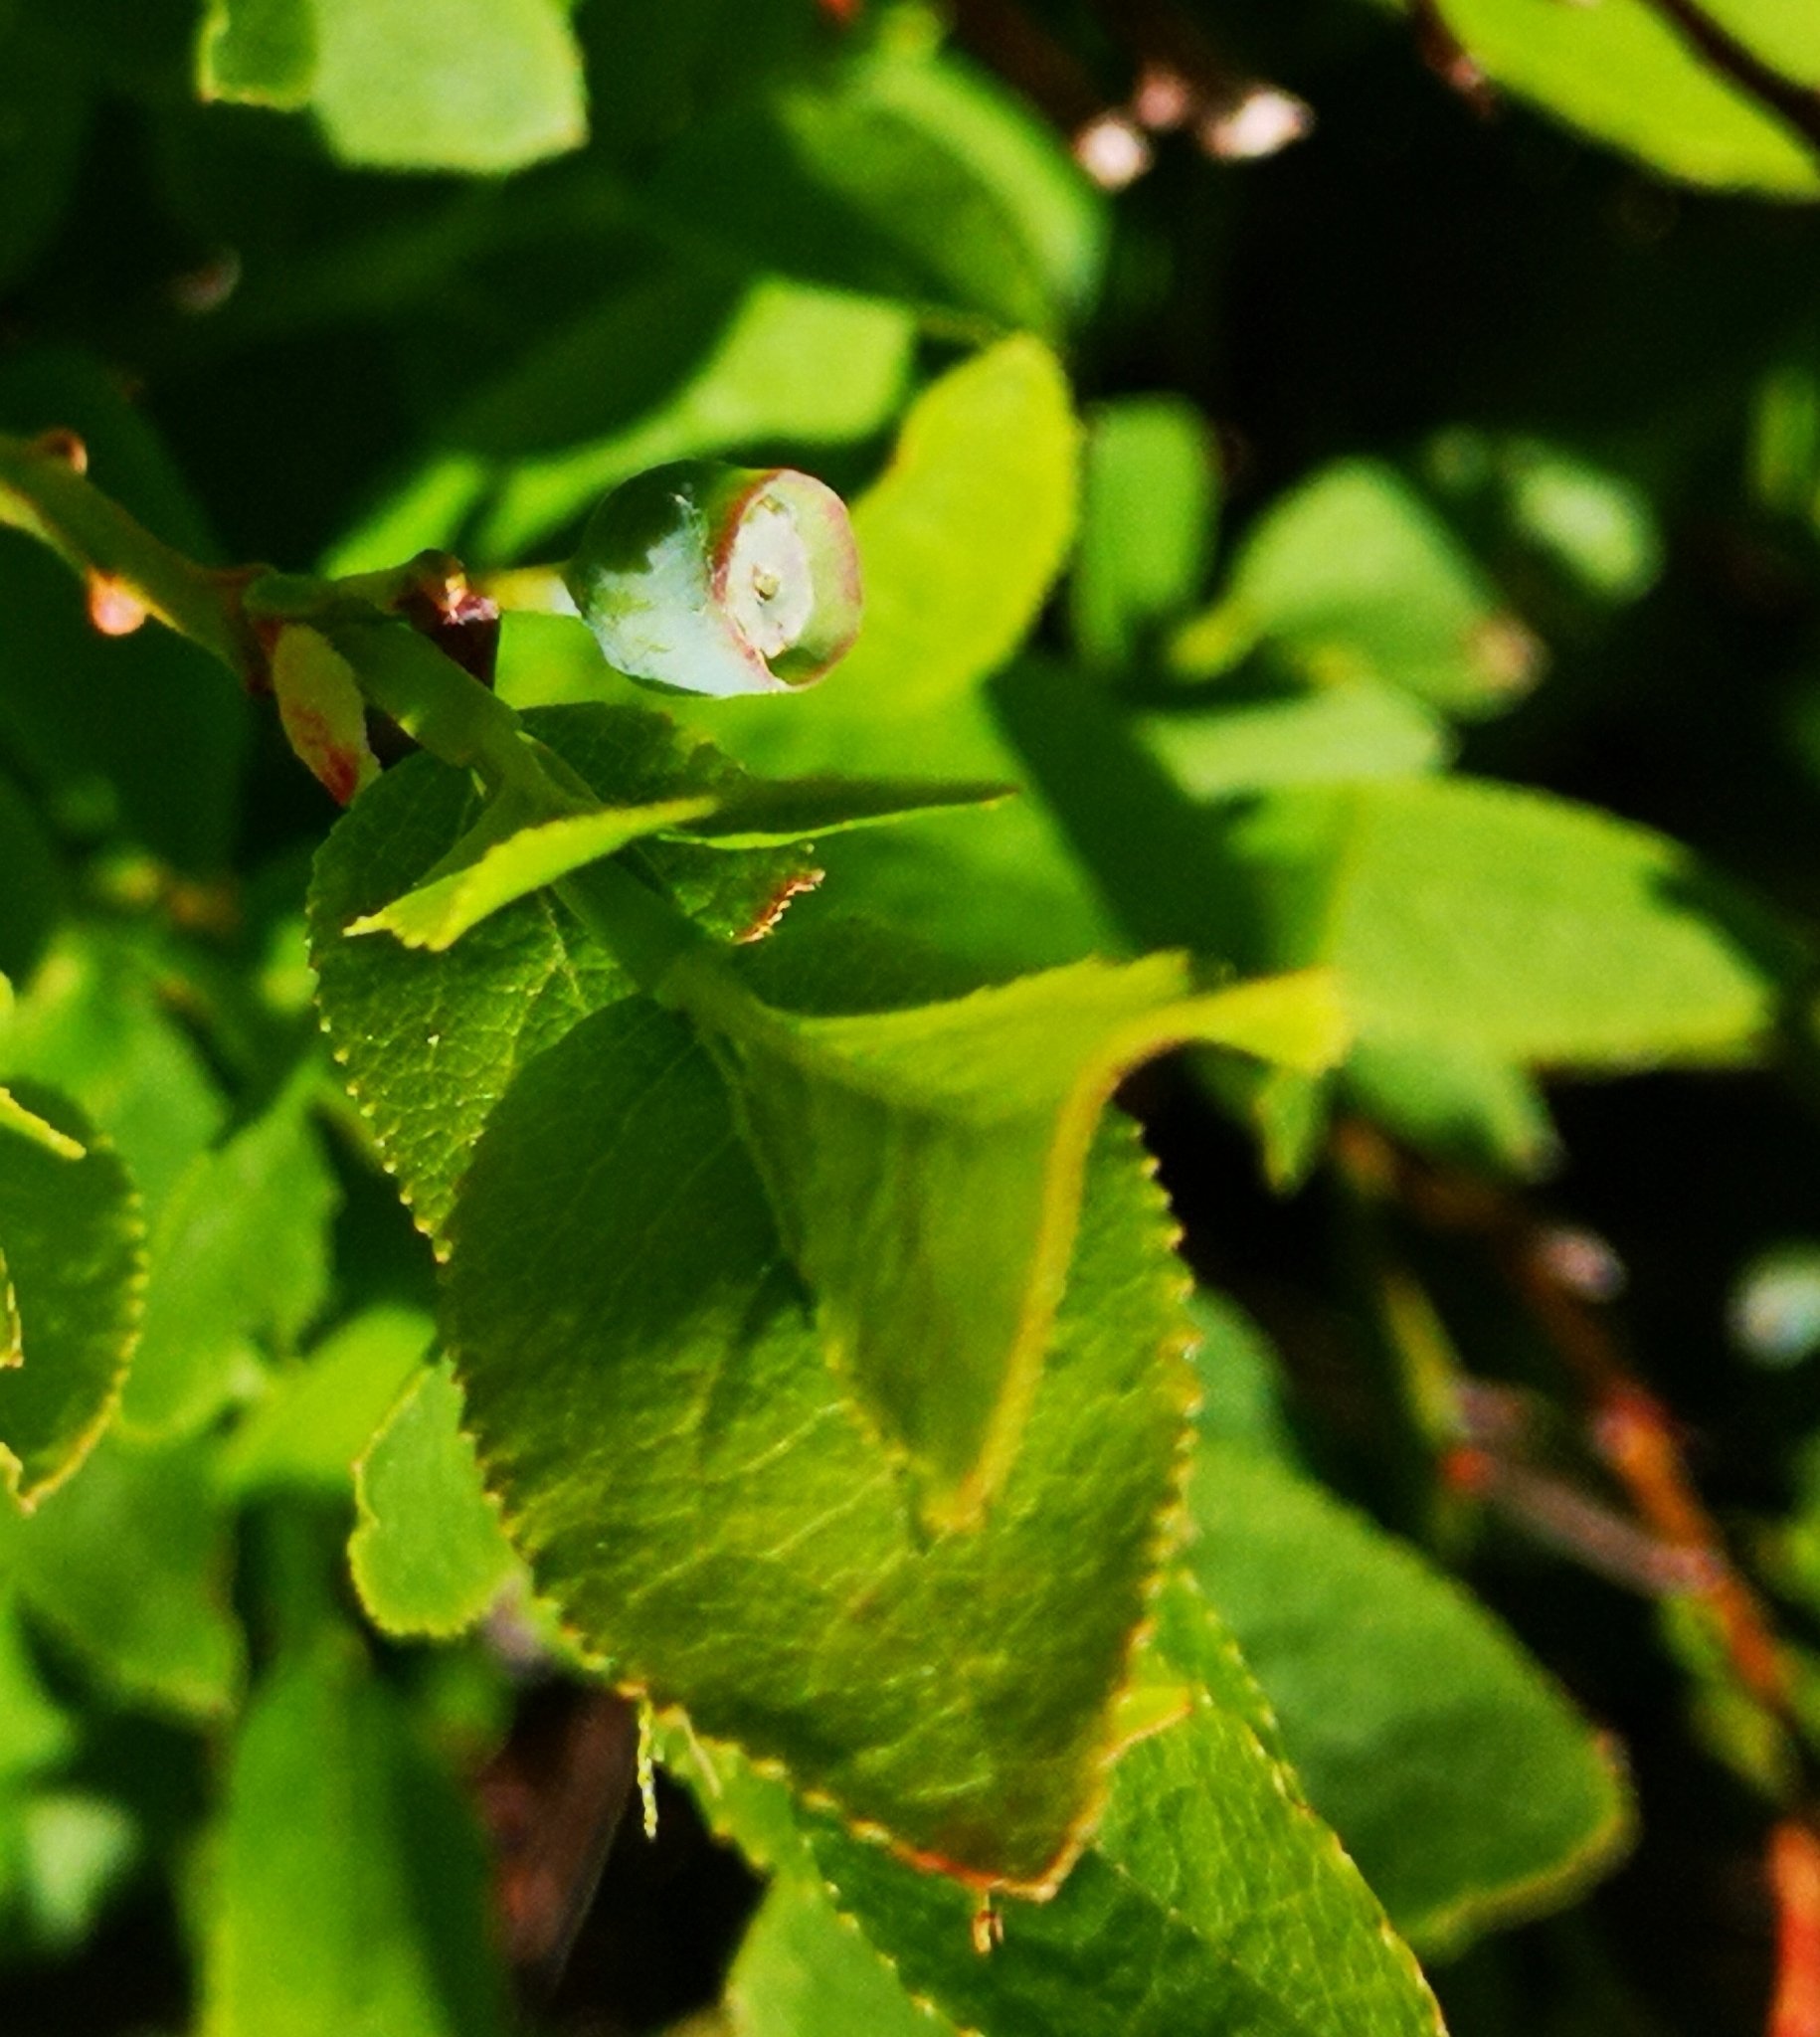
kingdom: Plantae
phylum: Tracheophyta
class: Magnoliopsida
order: Ericales
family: Ericaceae
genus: Vaccinium
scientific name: Vaccinium myrtillus
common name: Bilberry
